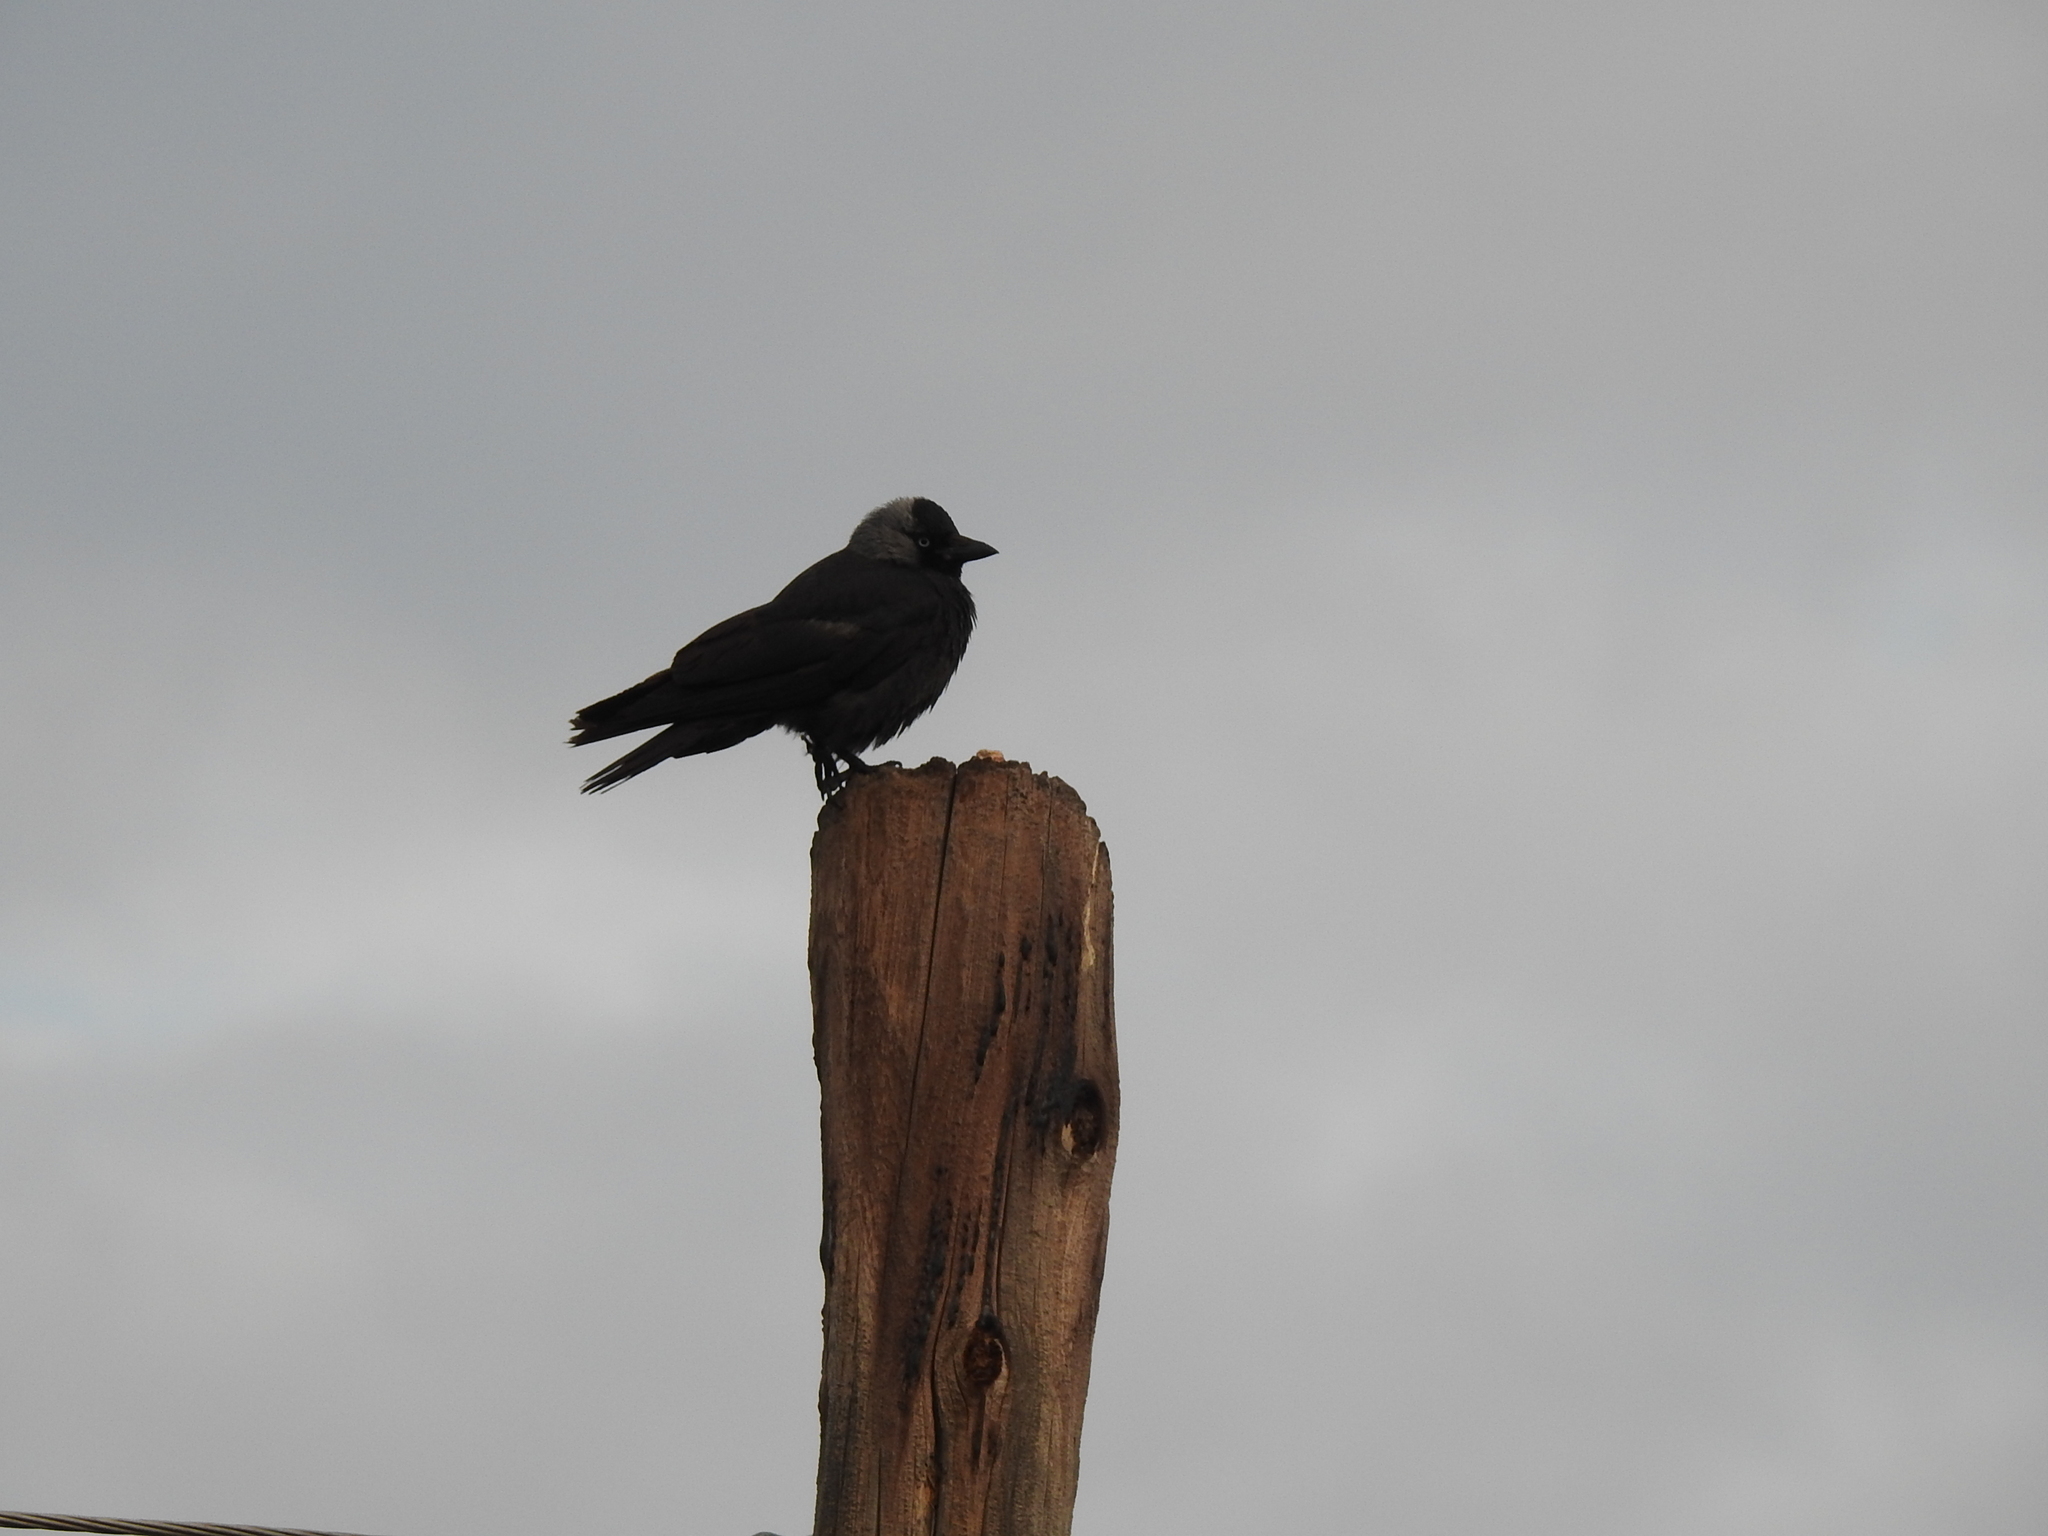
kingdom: Animalia
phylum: Chordata
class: Aves
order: Passeriformes
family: Corvidae
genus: Coloeus
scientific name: Coloeus monedula
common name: Western jackdaw
